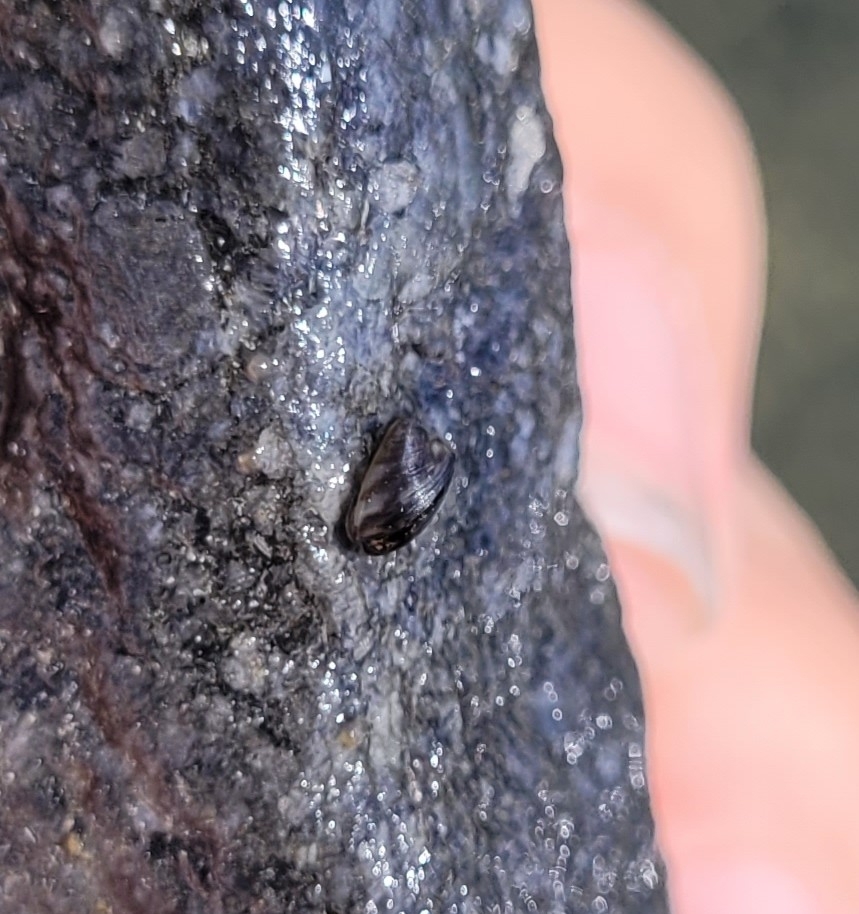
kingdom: Animalia
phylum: Mollusca
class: Bivalvia
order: Myida
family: Dreissenidae
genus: Dreissena
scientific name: Dreissena polymorpha
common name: Zebra mussel
